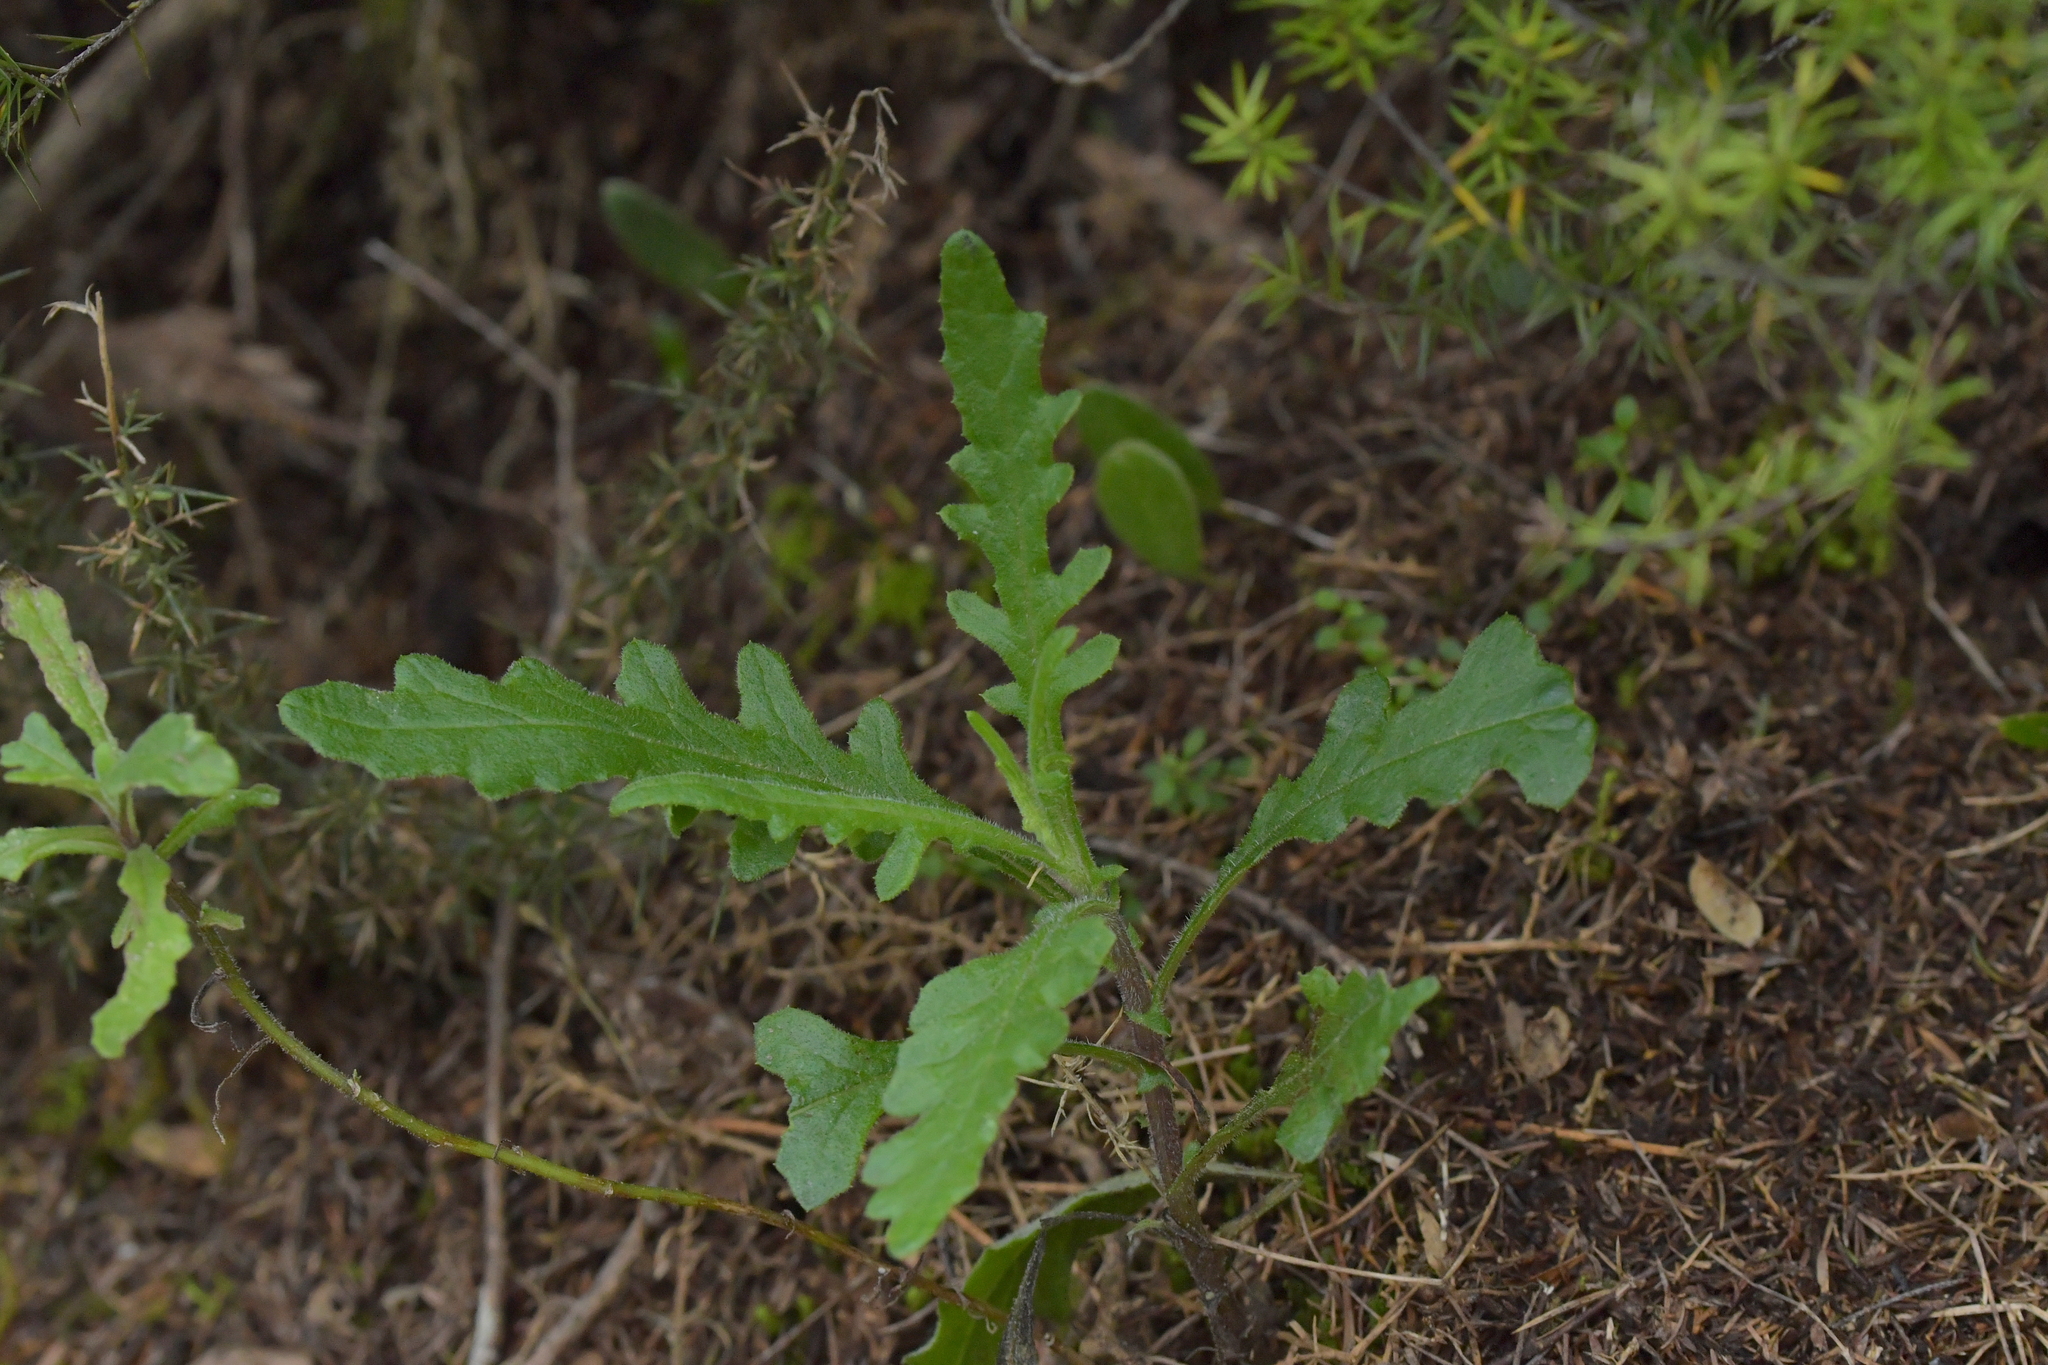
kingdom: Plantae
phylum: Tracheophyta
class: Magnoliopsida
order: Asterales
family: Asteraceae
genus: Senecio
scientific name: Senecio hispidulus
